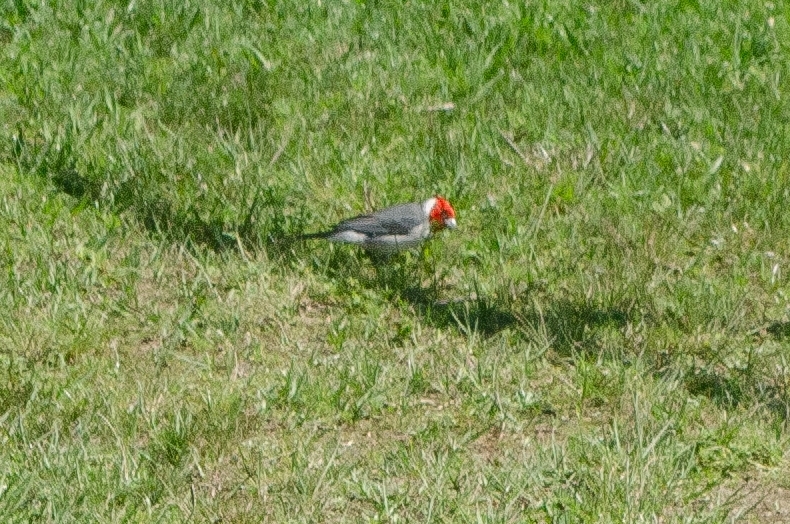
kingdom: Animalia
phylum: Chordata
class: Aves
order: Passeriformes
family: Thraupidae
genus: Paroaria
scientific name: Paroaria coronata
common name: Red-crested cardinal
